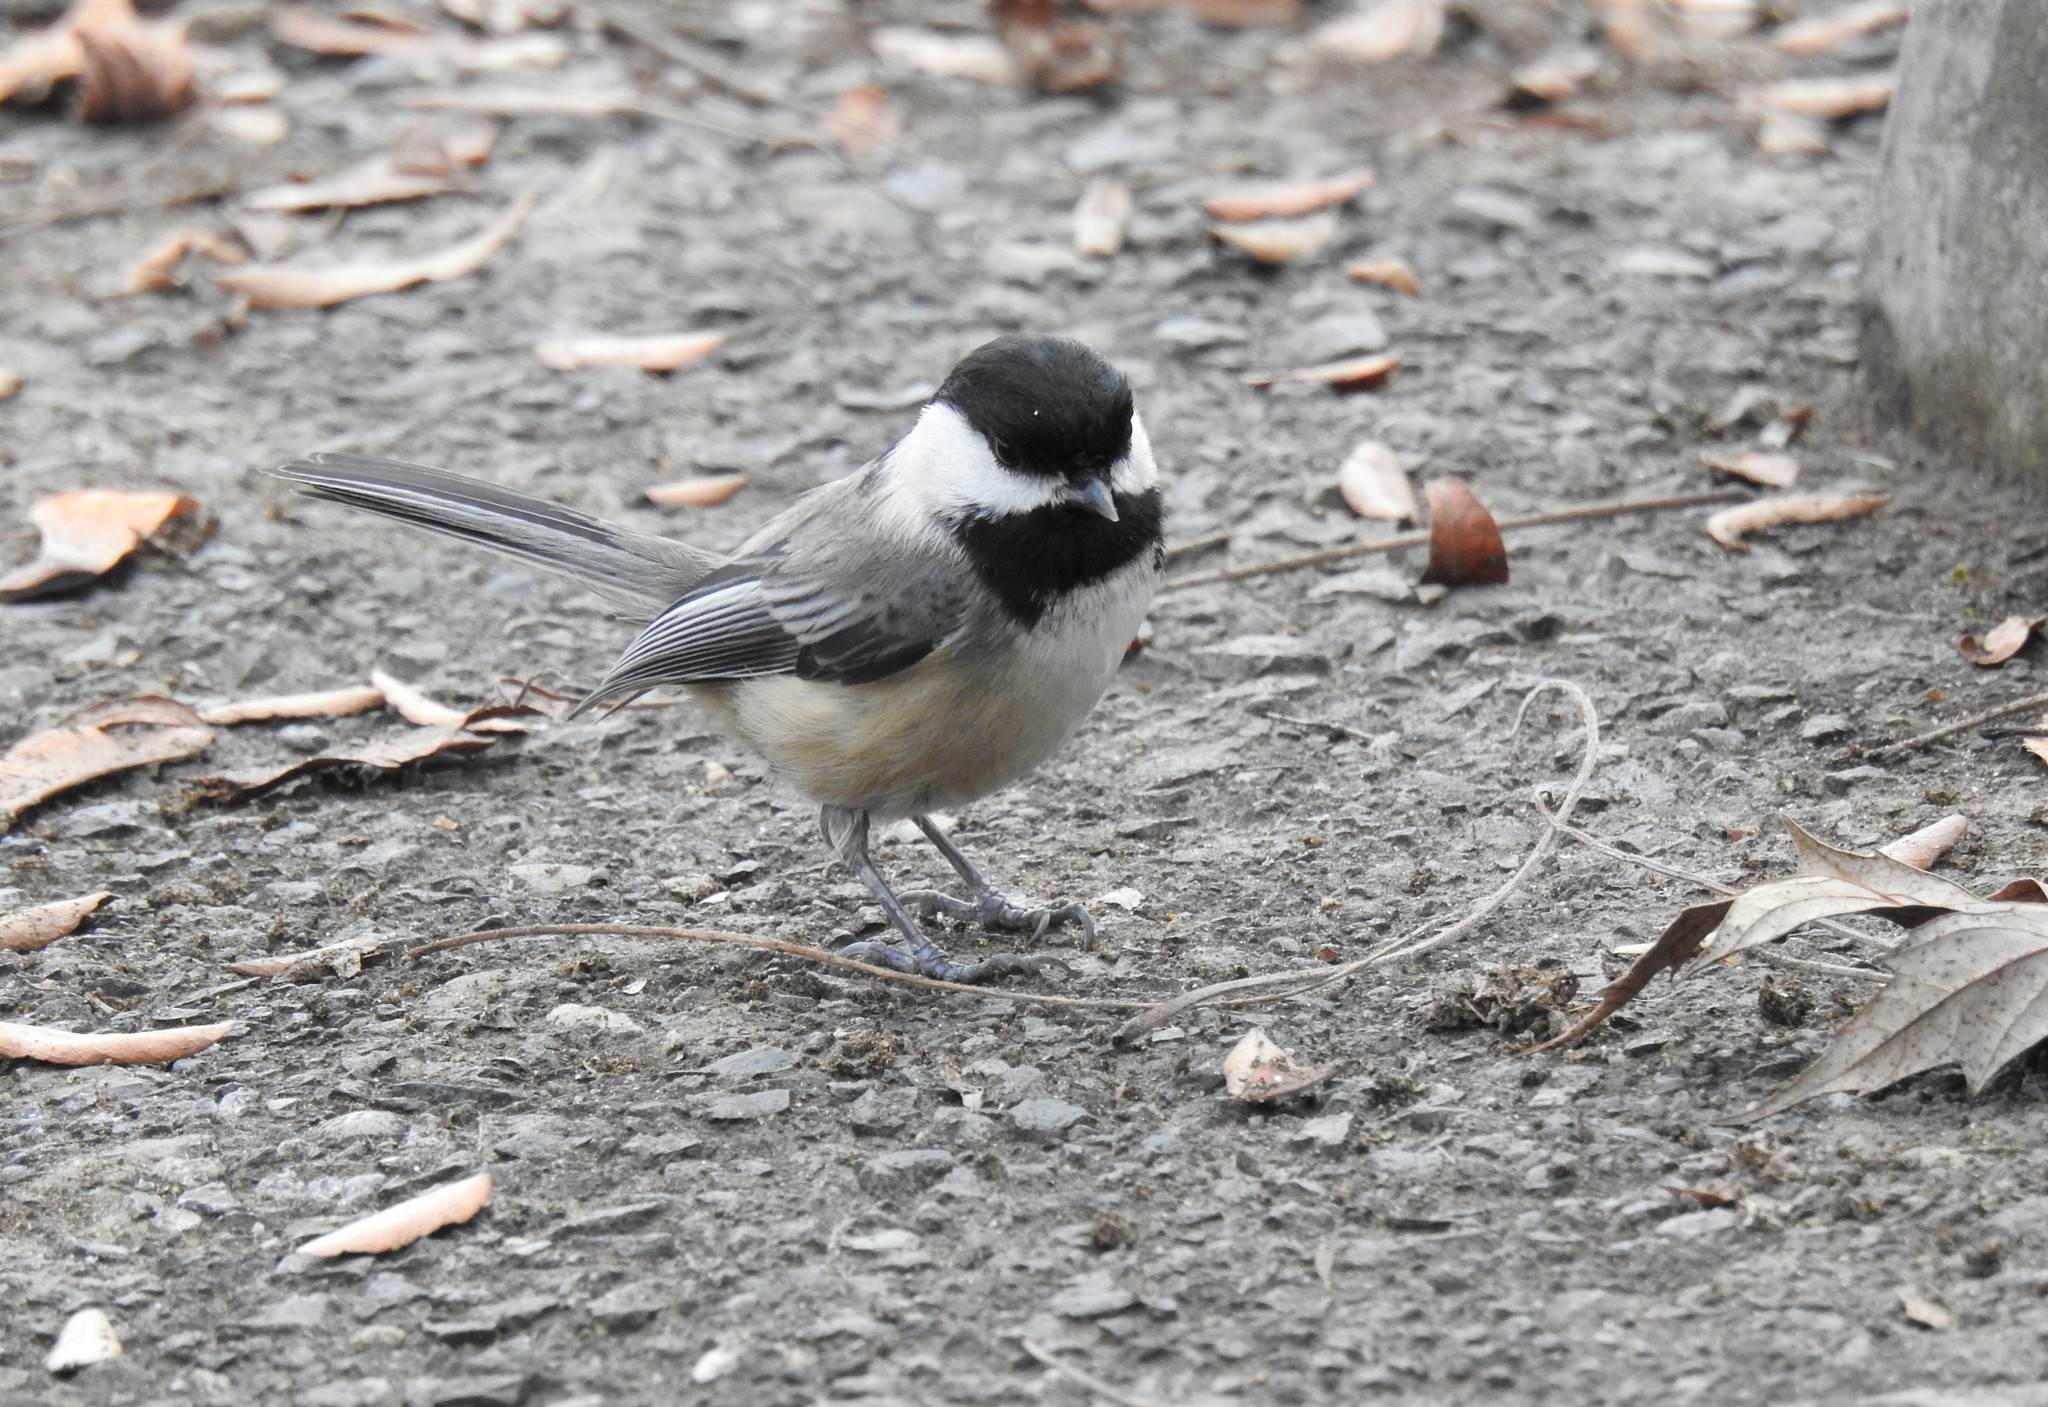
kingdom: Animalia
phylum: Chordata
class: Aves
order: Passeriformes
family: Paridae
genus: Poecile
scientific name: Poecile atricapillus
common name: Black-capped chickadee
